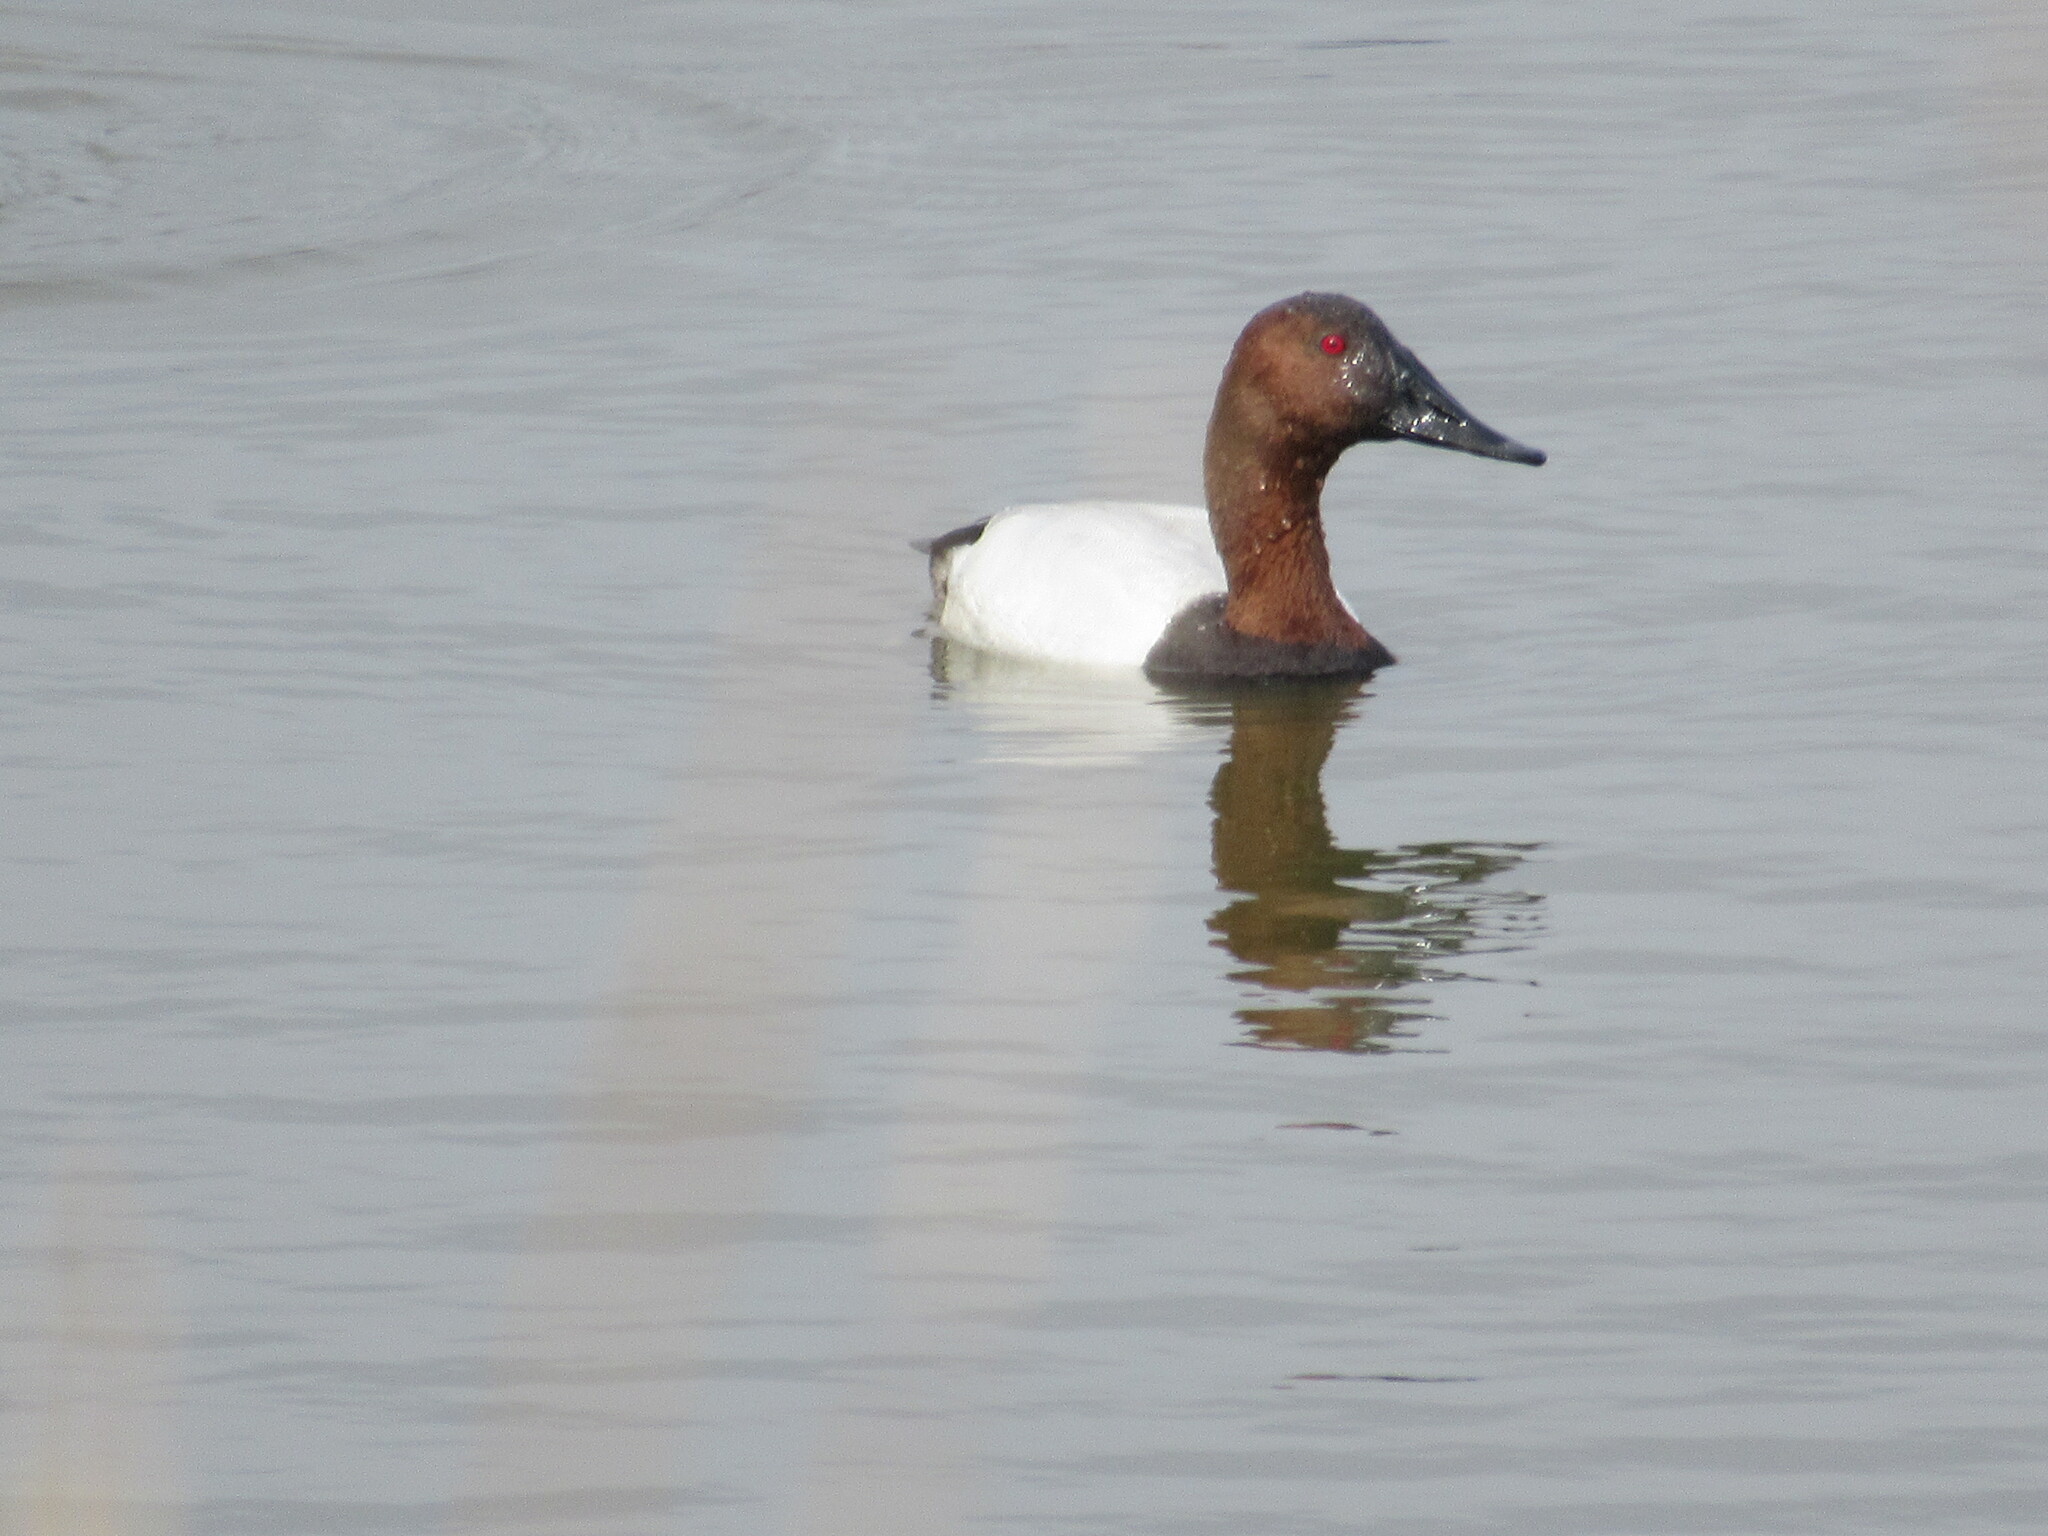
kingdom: Animalia
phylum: Chordata
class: Aves
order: Anseriformes
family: Anatidae
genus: Aythya
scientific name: Aythya valisineria
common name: Canvasback
